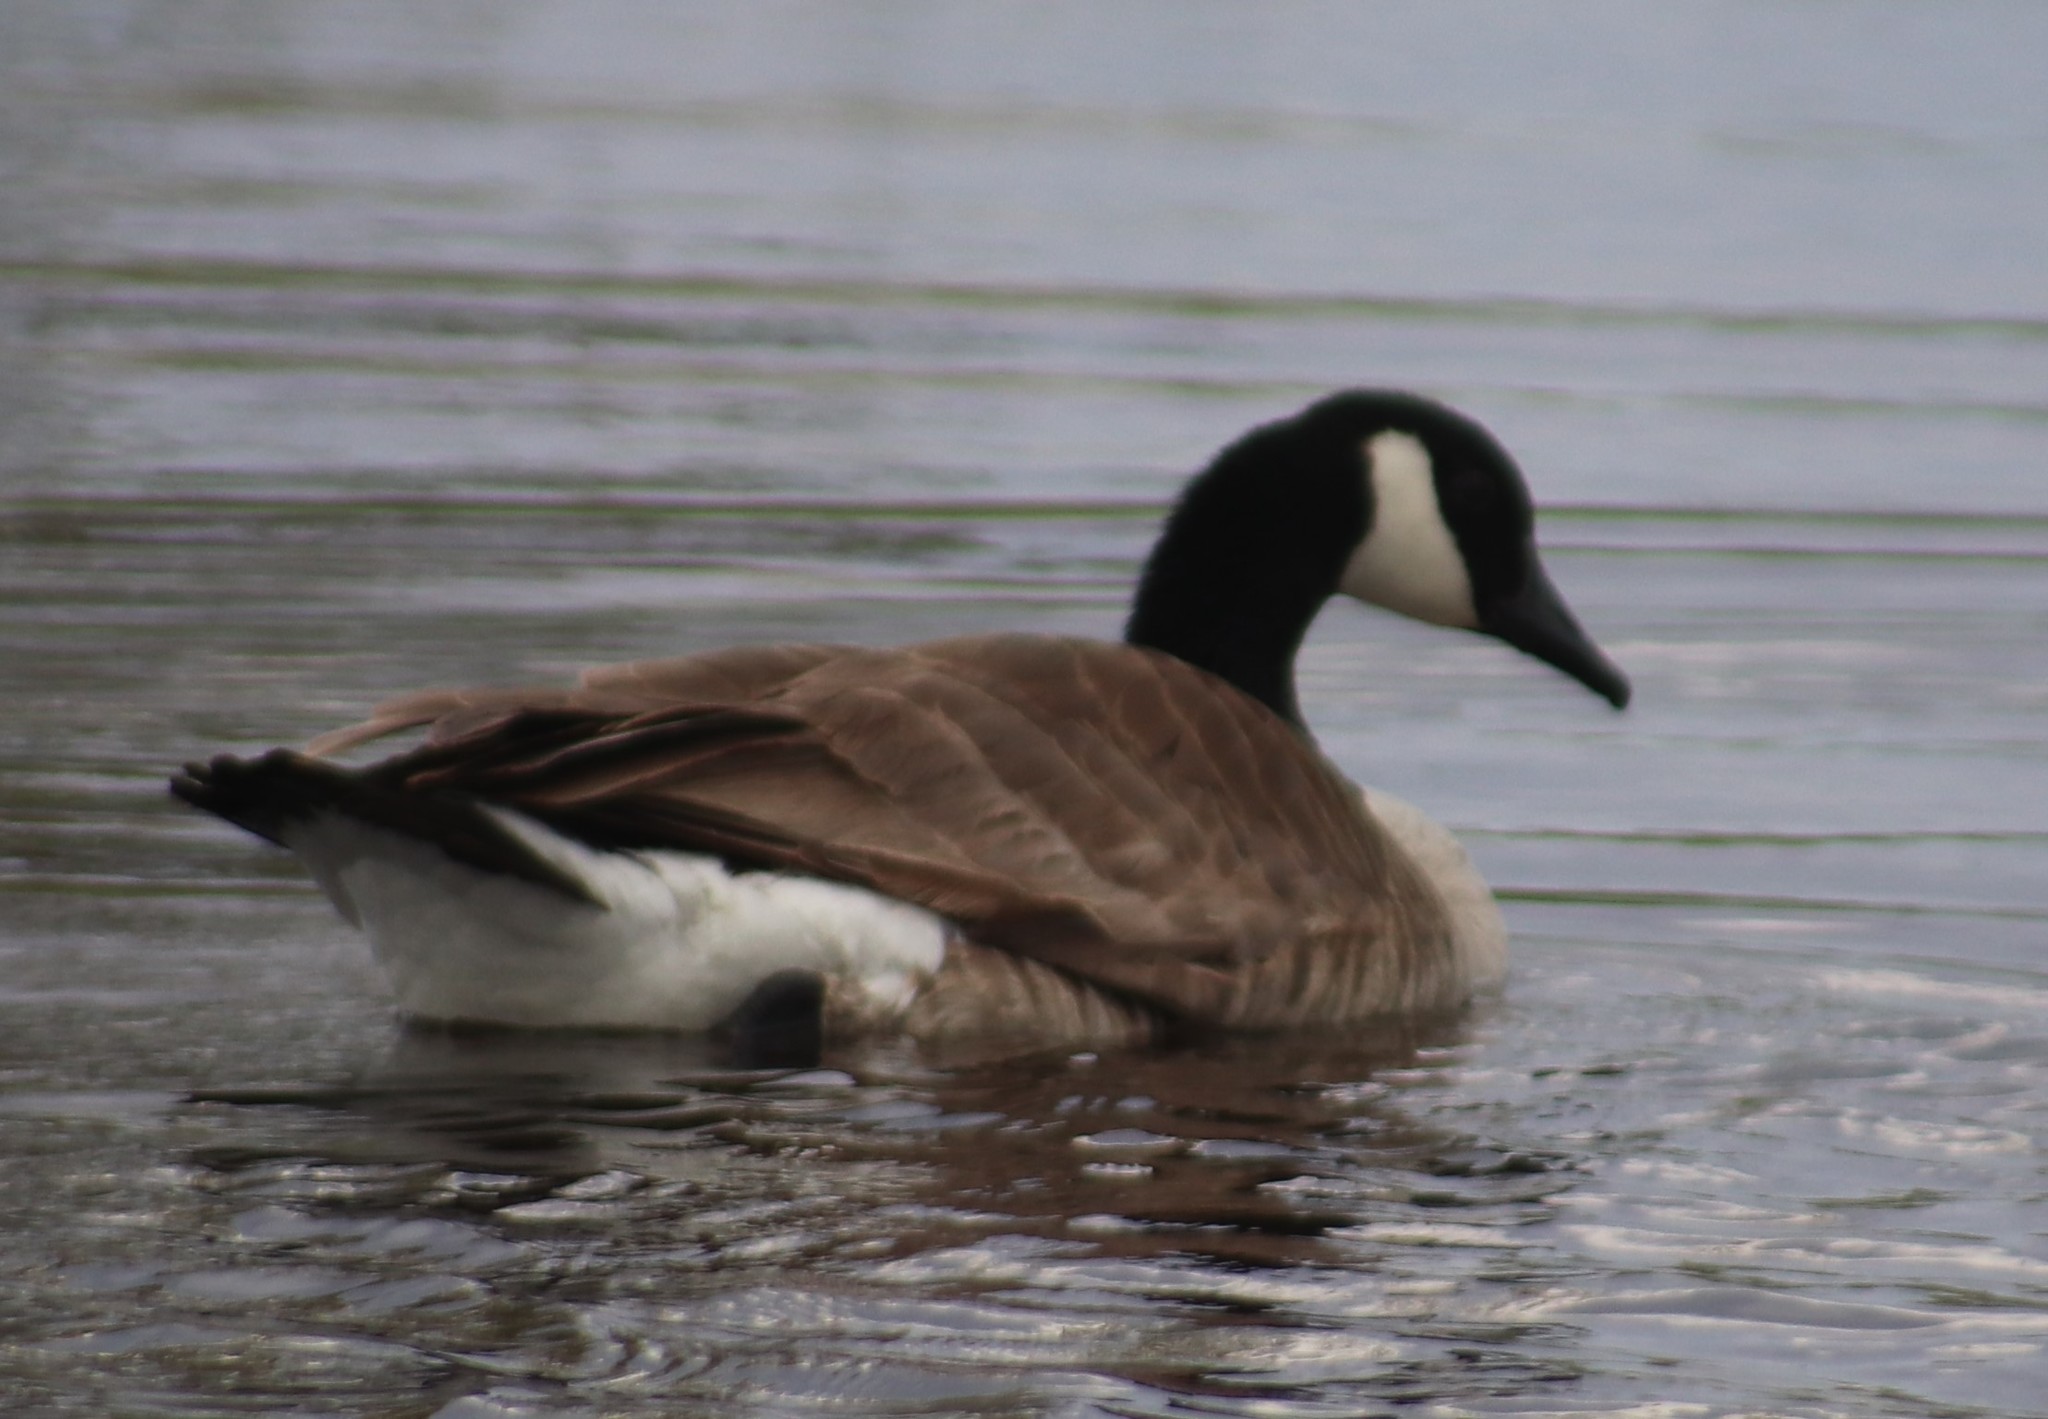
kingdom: Animalia
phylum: Chordata
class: Aves
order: Anseriformes
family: Anatidae
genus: Branta
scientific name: Branta canadensis
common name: Canada goose
